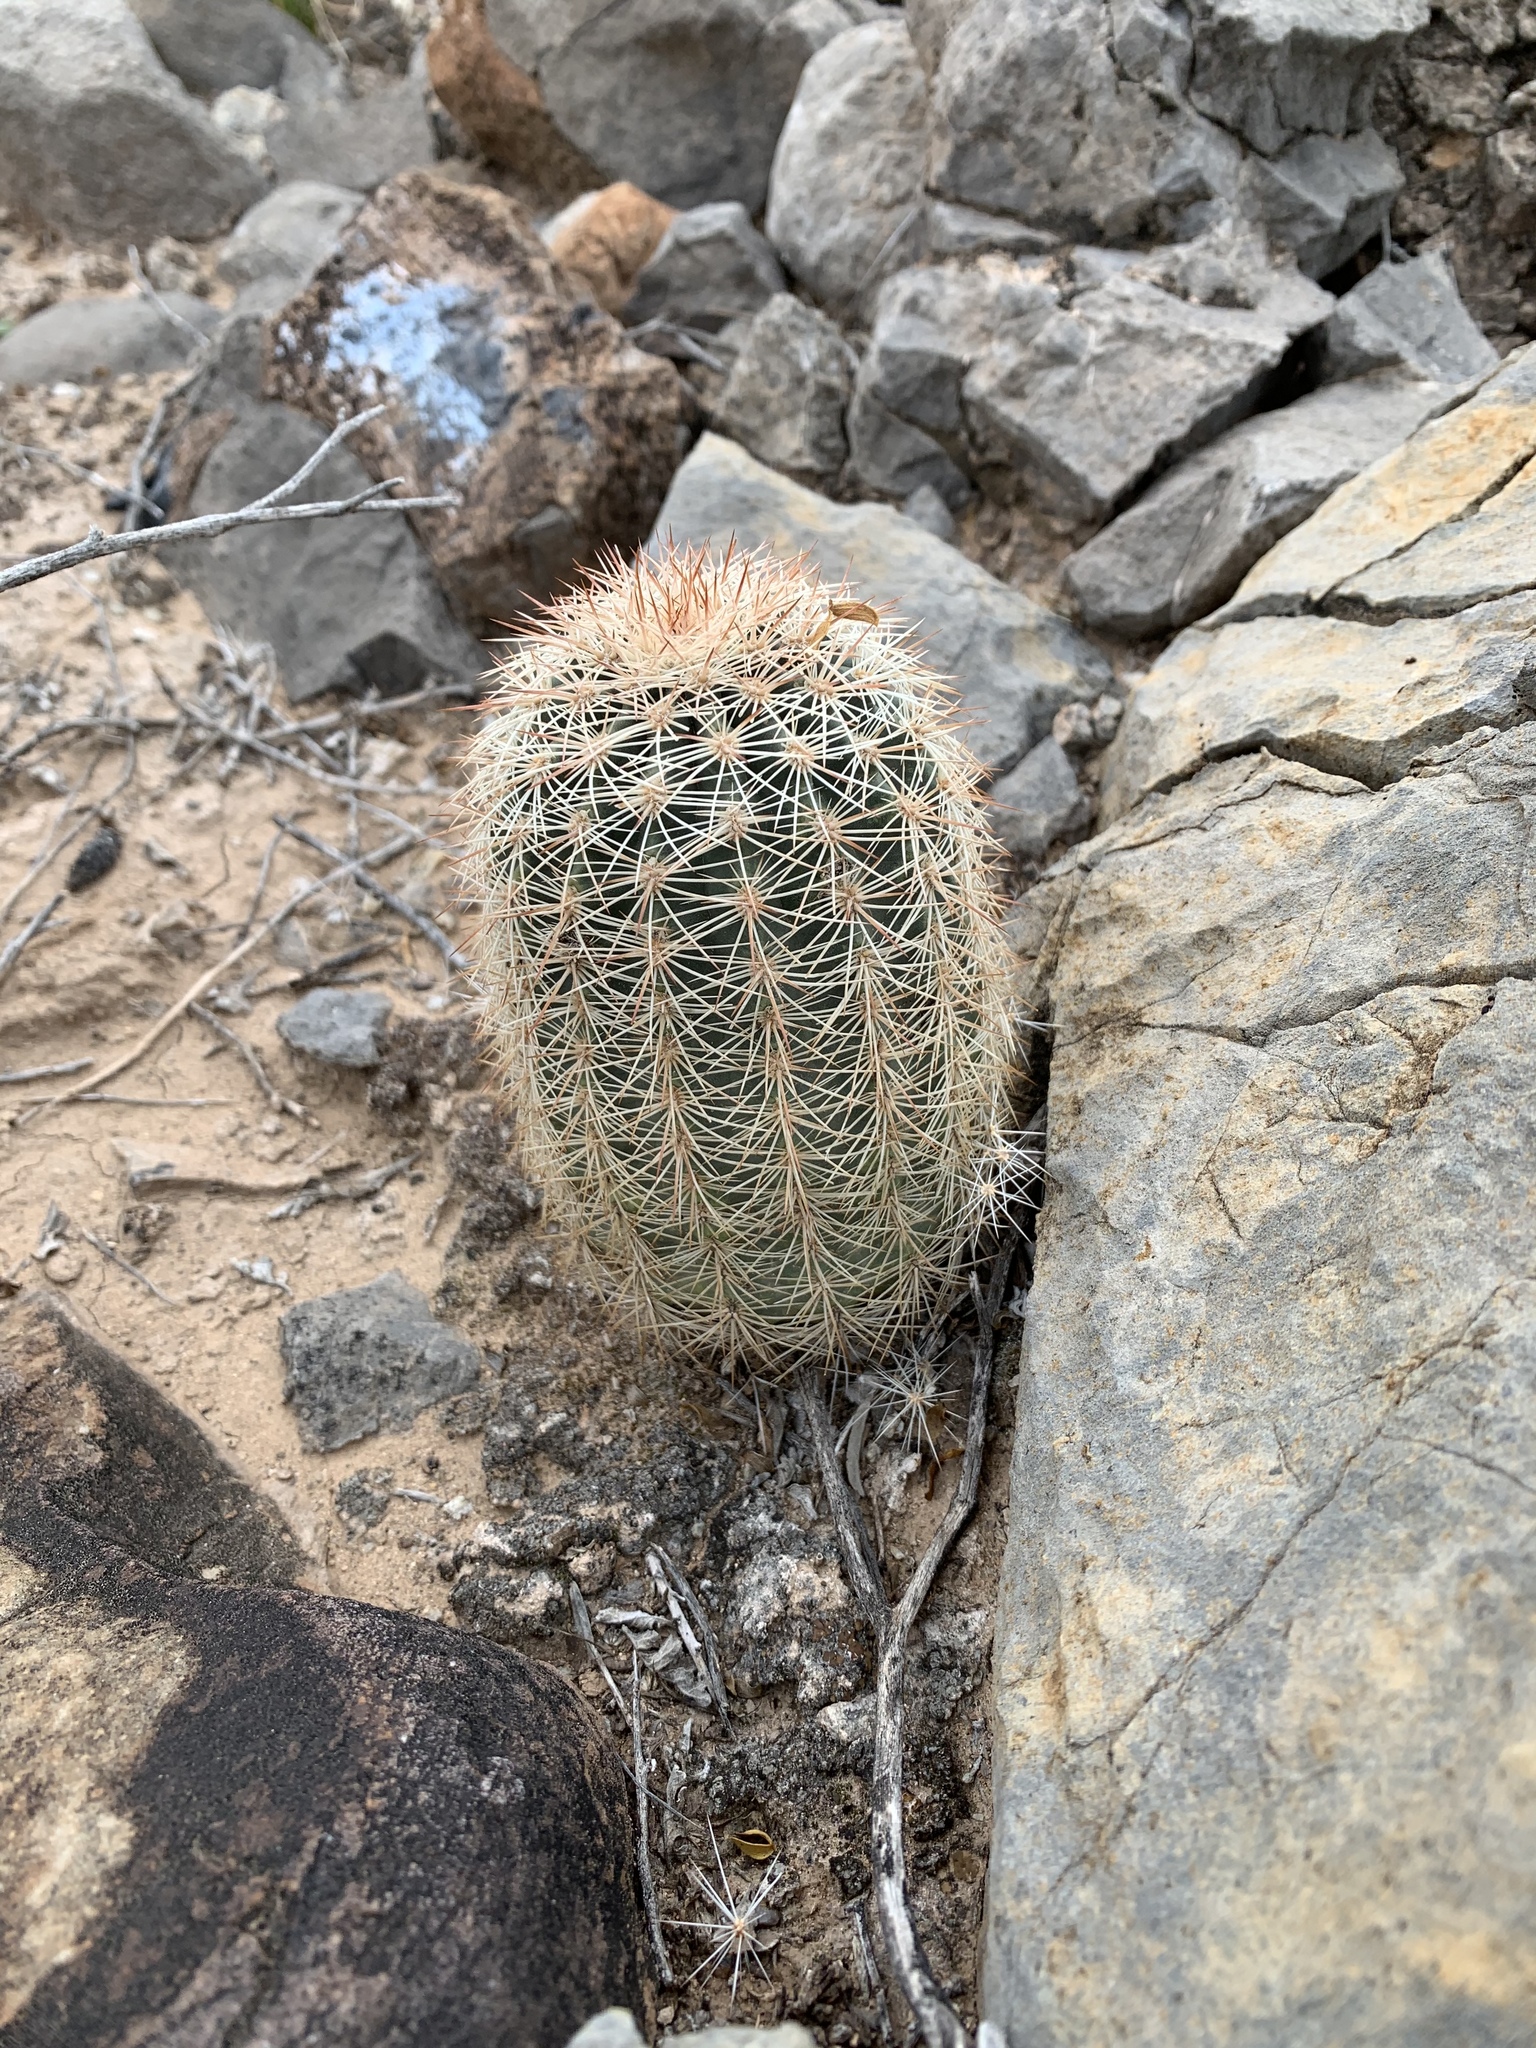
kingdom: Plantae
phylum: Tracheophyta
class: Magnoliopsida
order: Caryophyllales
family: Cactaceae
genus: Echinocereus
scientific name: Echinocereus dasyacanthus
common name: Spiny hedgehog cactus
